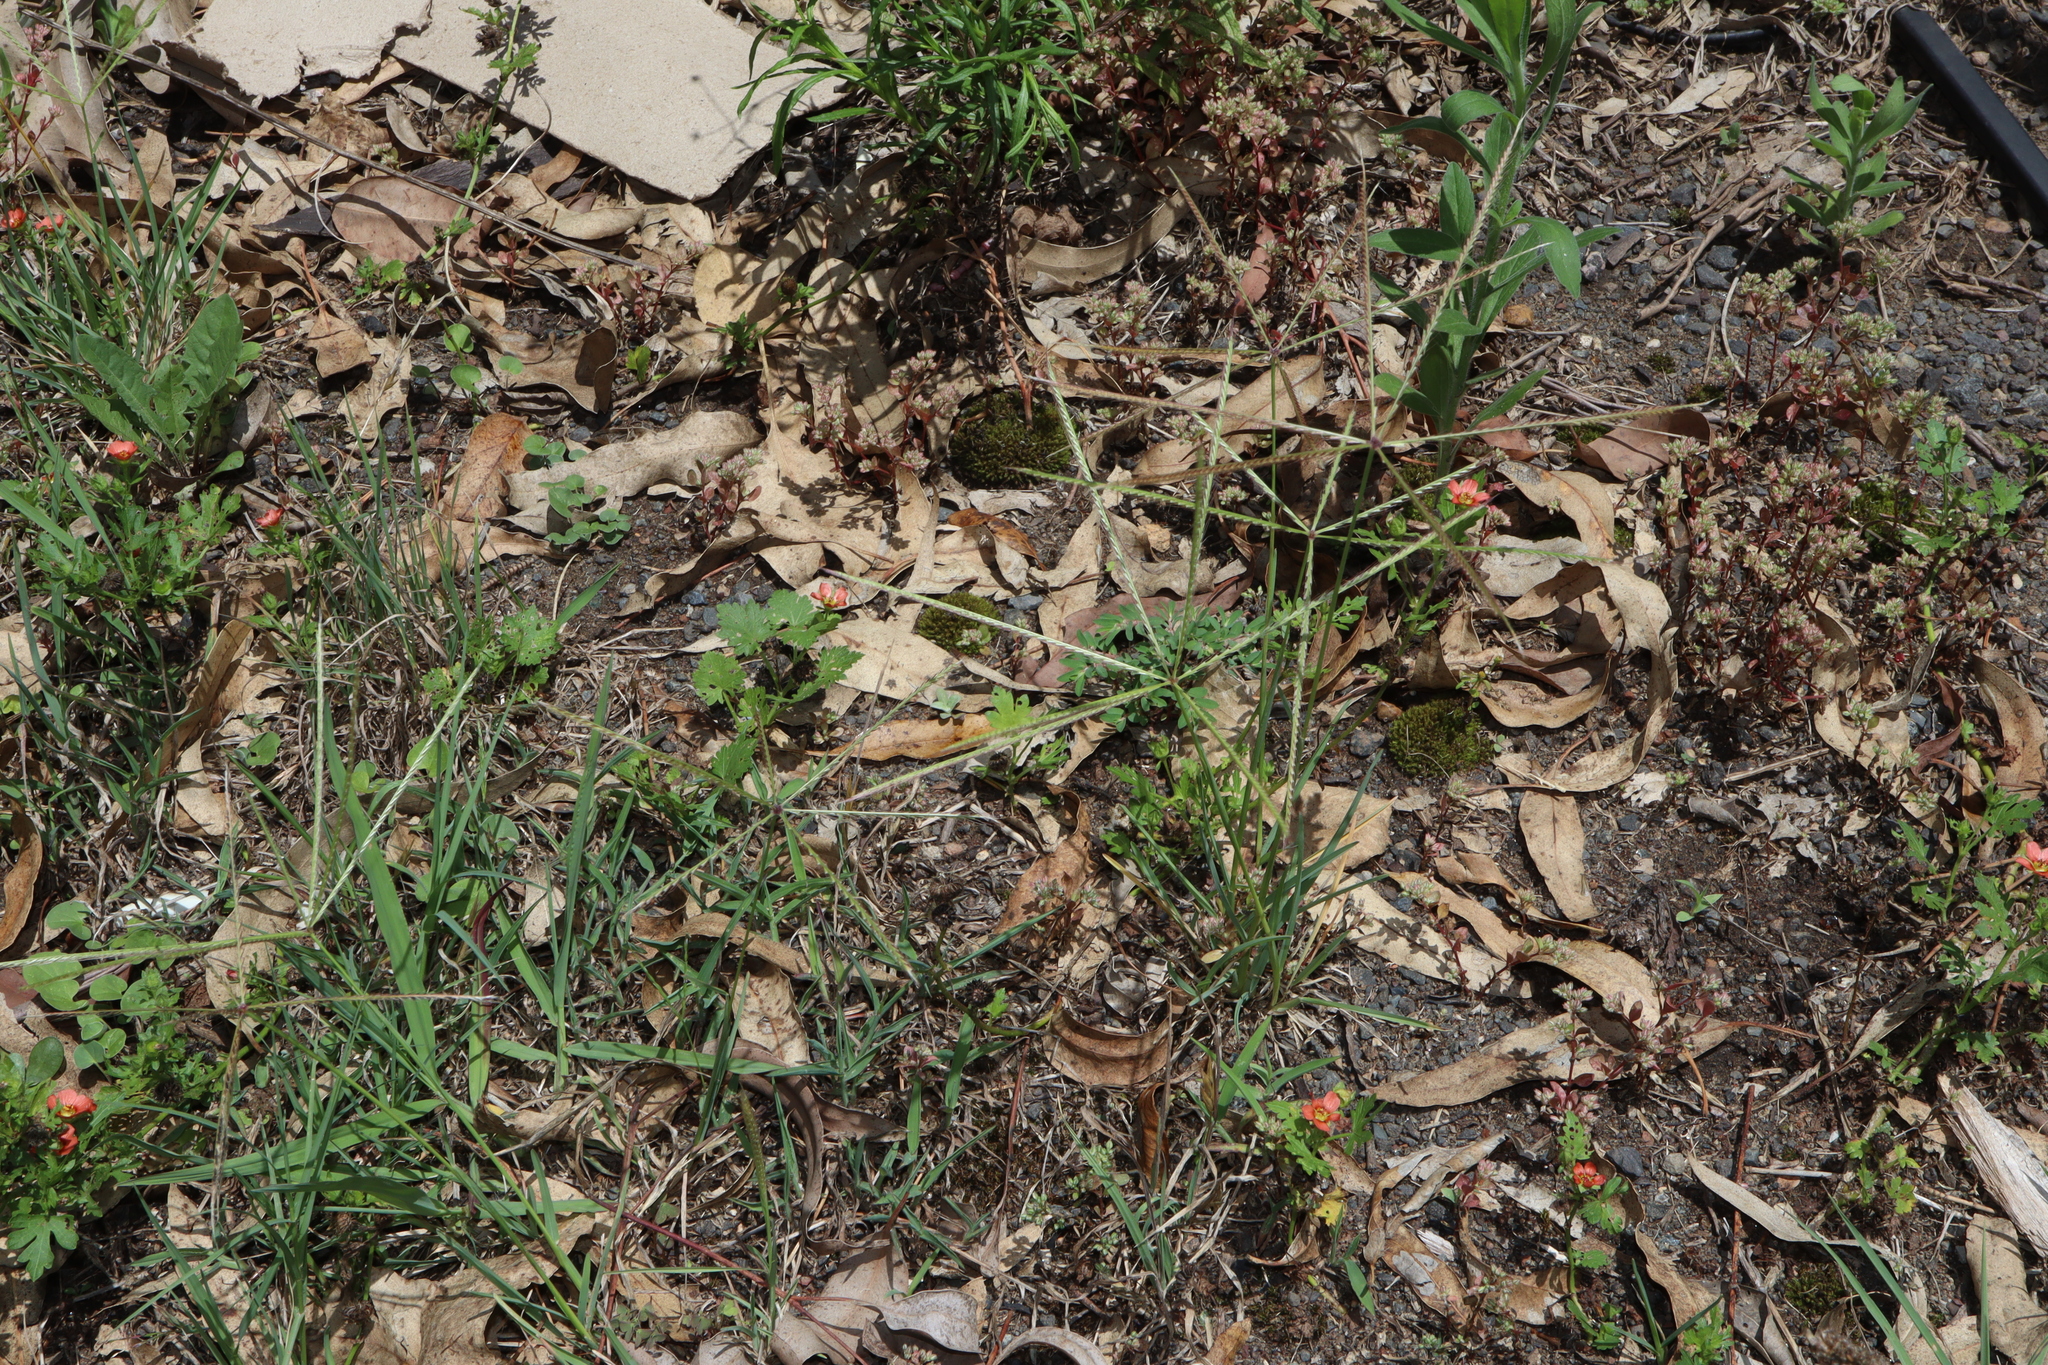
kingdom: Plantae
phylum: Tracheophyta
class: Liliopsida
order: Poales
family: Poaceae
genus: Chloris
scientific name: Chloris truncata
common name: Windmill-grass
